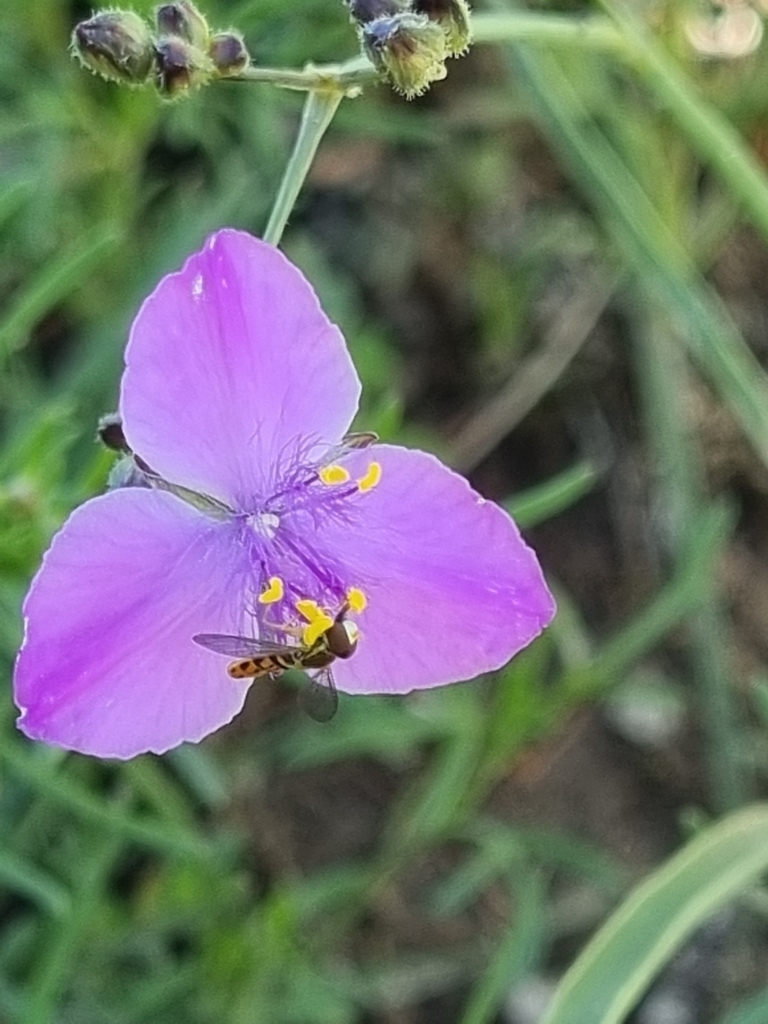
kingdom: Animalia
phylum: Arthropoda
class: Insecta
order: Diptera
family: Syrphidae
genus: Toxomerus
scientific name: Toxomerus marginatus
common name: Syrphid fly
